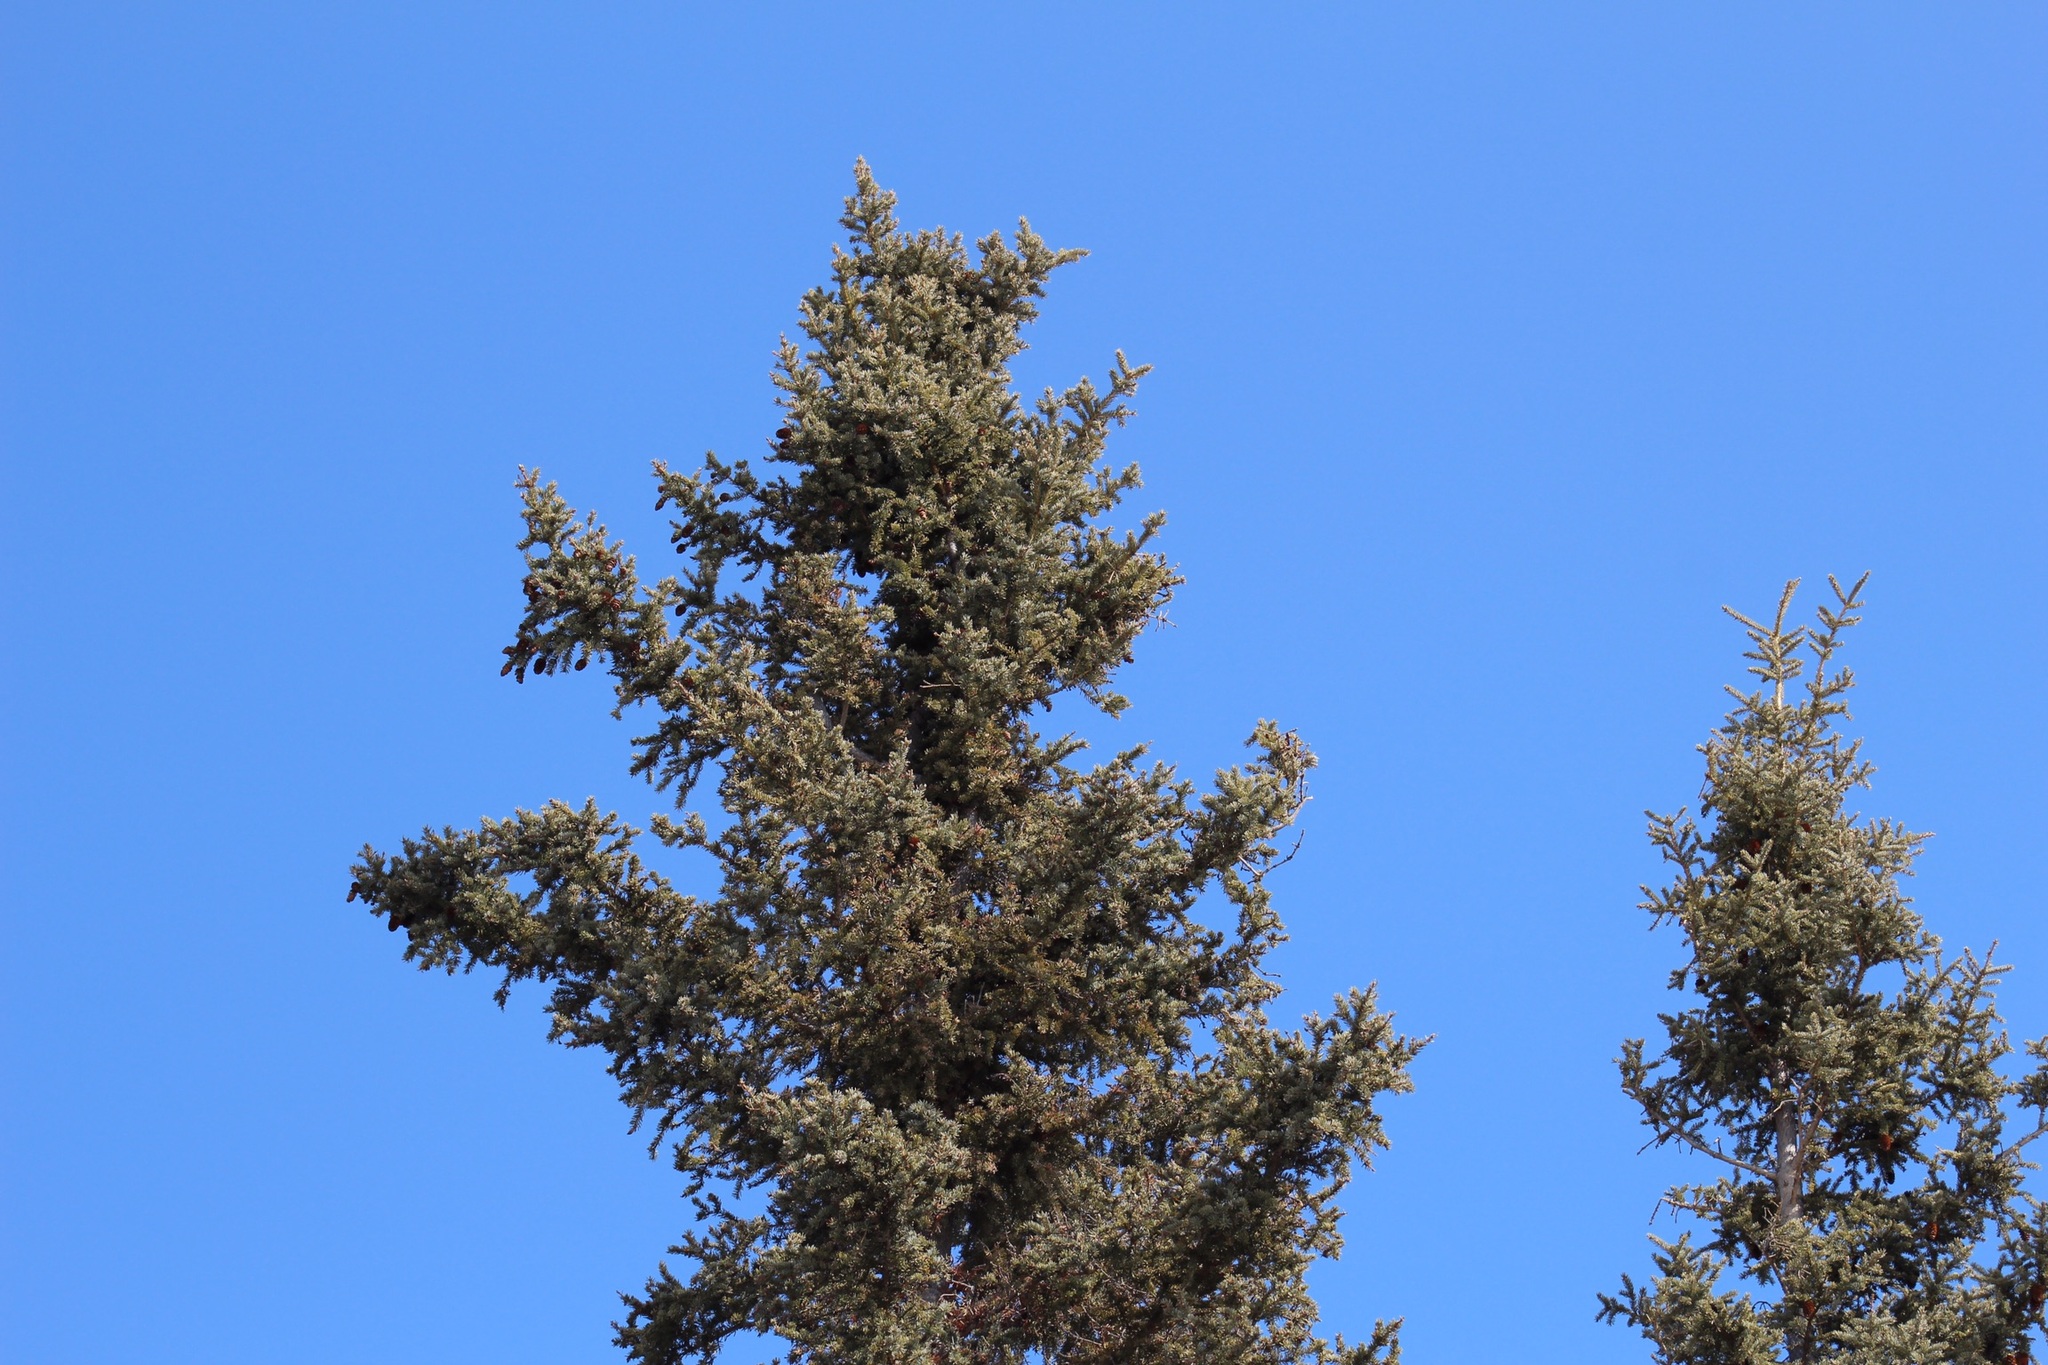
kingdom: Plantae
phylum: Tracheophyta
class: Pinopsida
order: Pinales
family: Pinaceae
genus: Picea
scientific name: Picea glauca
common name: White spruce
